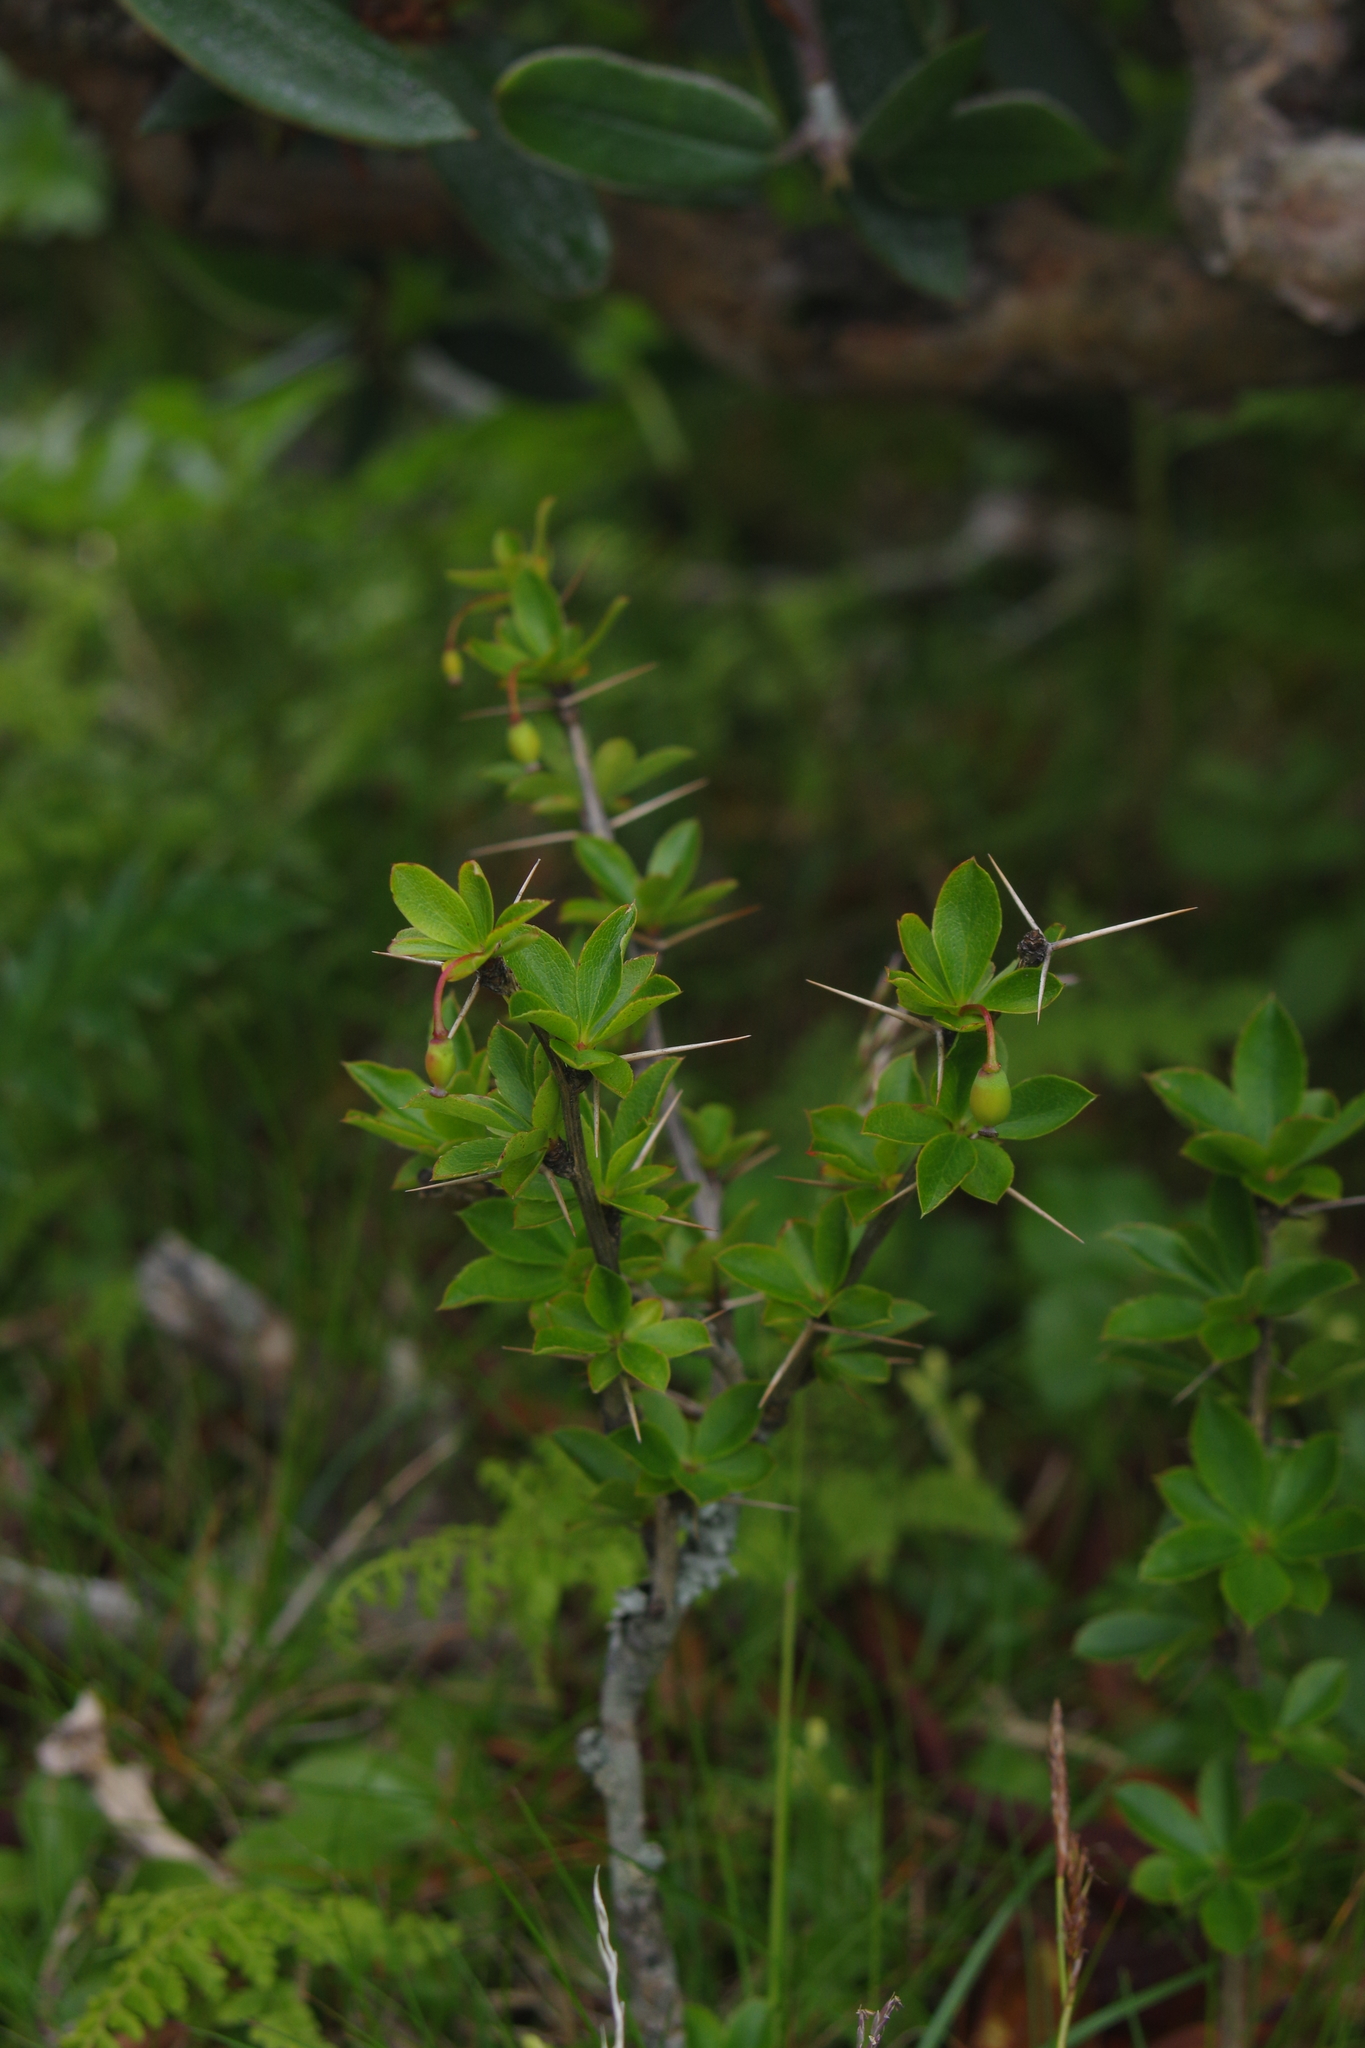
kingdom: Plantae
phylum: Tracheophyta
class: Magnoliopsida
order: Ranunculales
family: Berberidaceae
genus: Berberis
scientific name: Berberis morrisonensis
